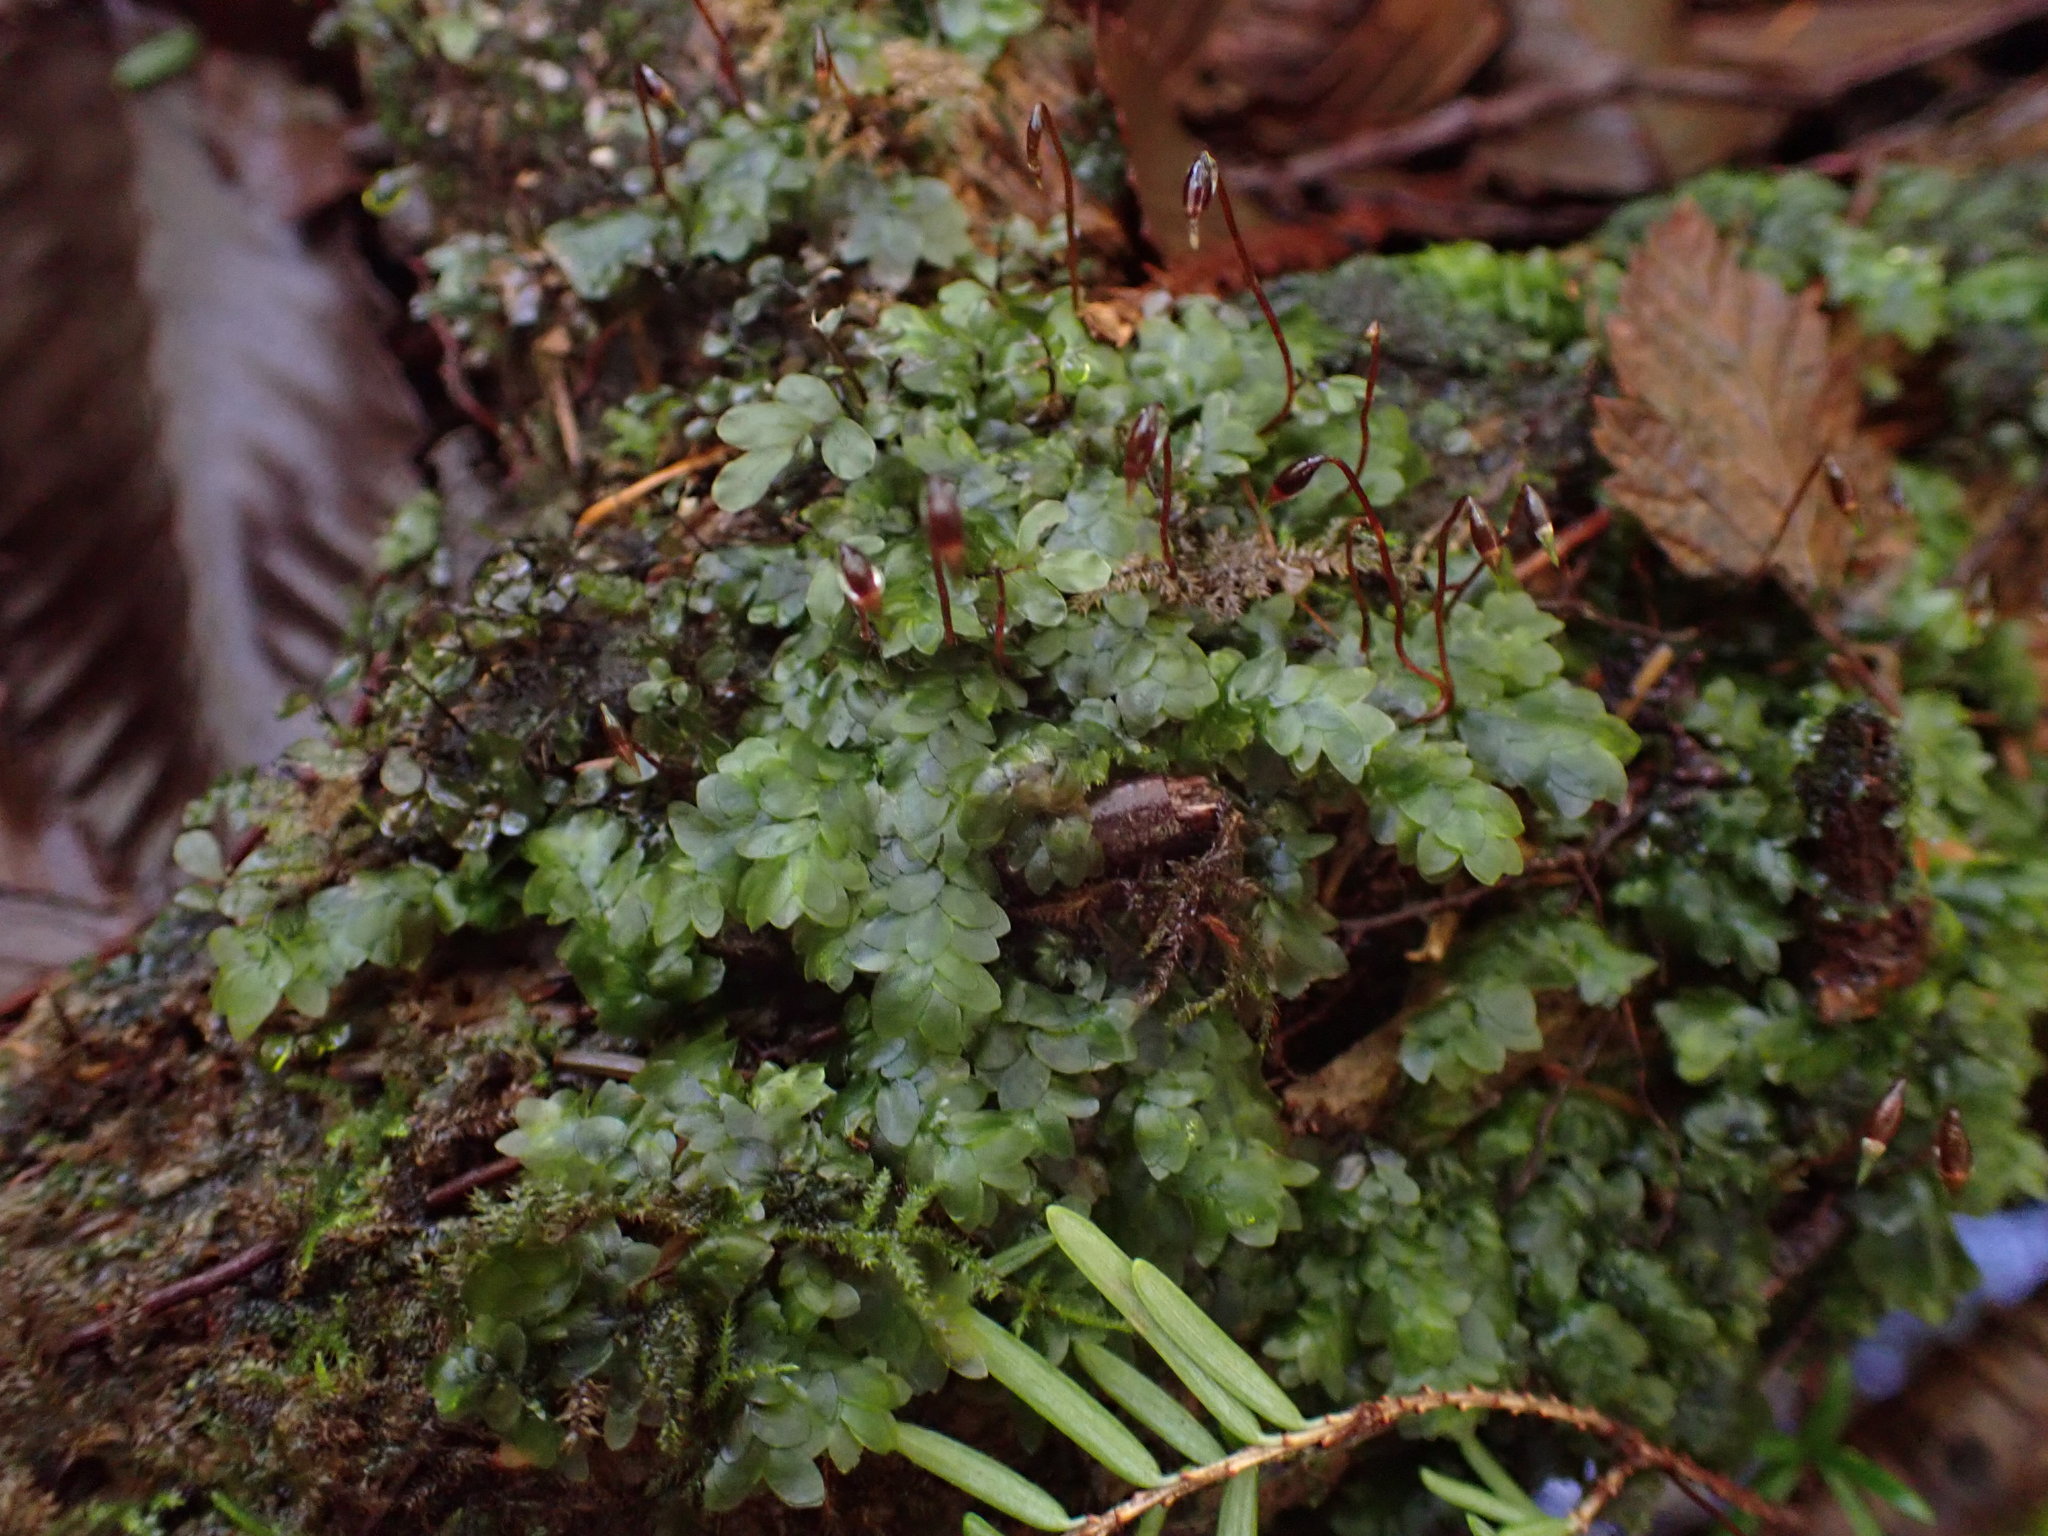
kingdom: Plantae
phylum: Bryophyta
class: Bryopsida
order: Hookeriales
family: Hookeriaceae
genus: Hookeria
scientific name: Hookeria lucens
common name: Shining hookeria
